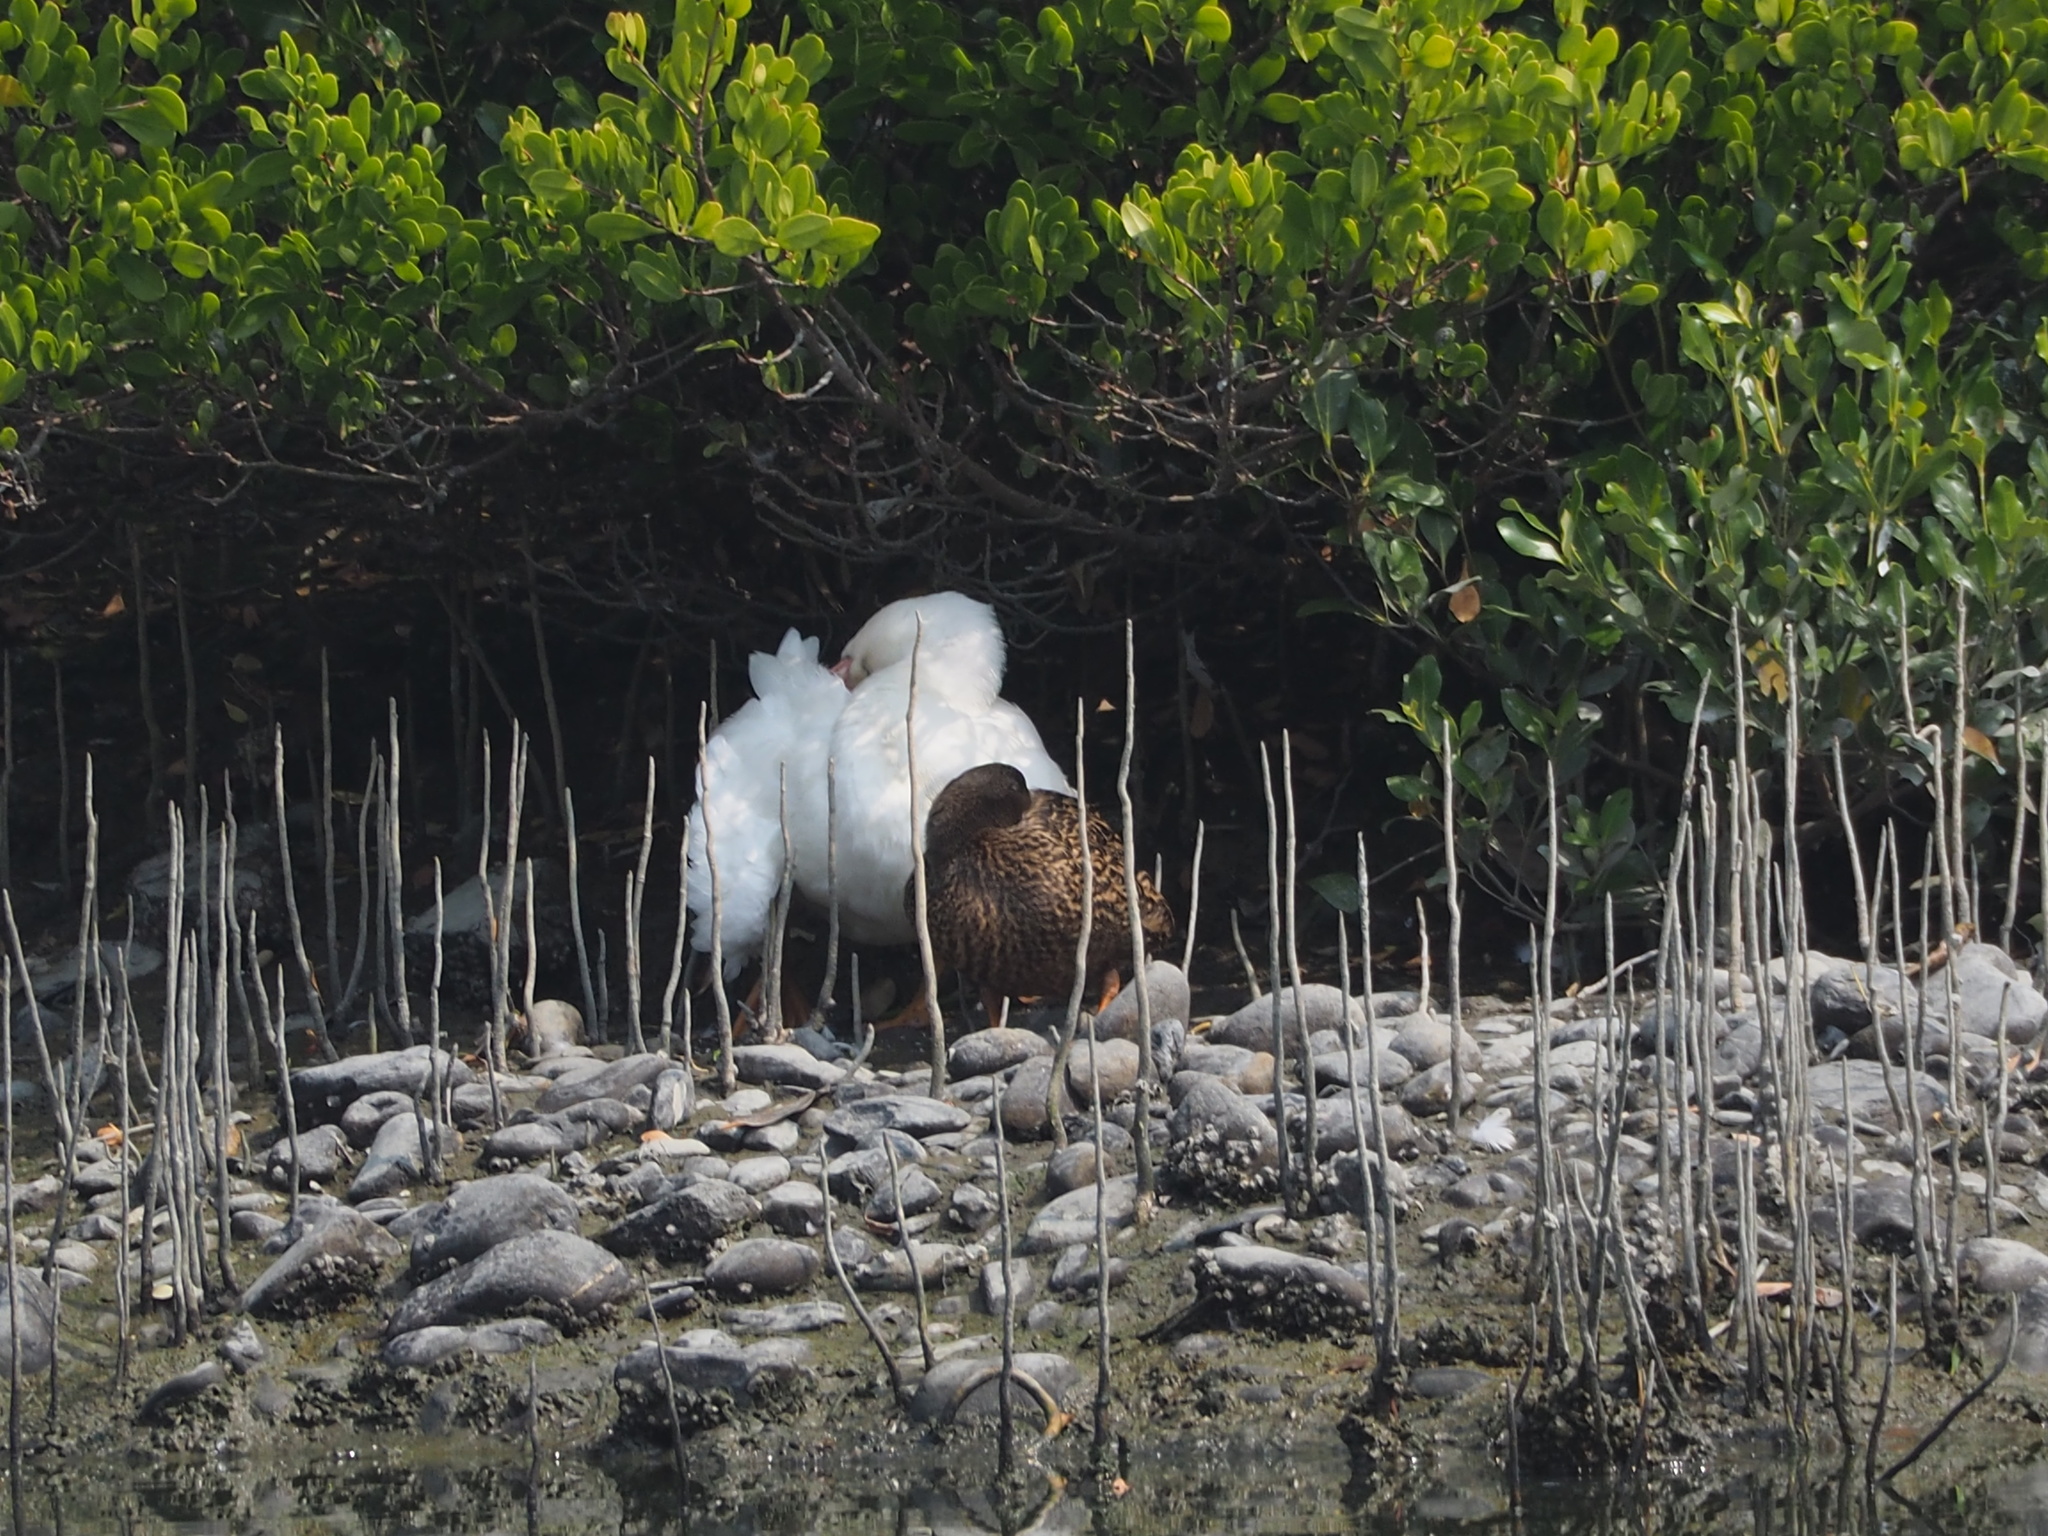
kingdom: Animalia
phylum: Chordata
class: Aves
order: Anseriformes
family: Anatidae
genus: Anas
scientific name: Anas platyrhynchos
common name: Mallard
